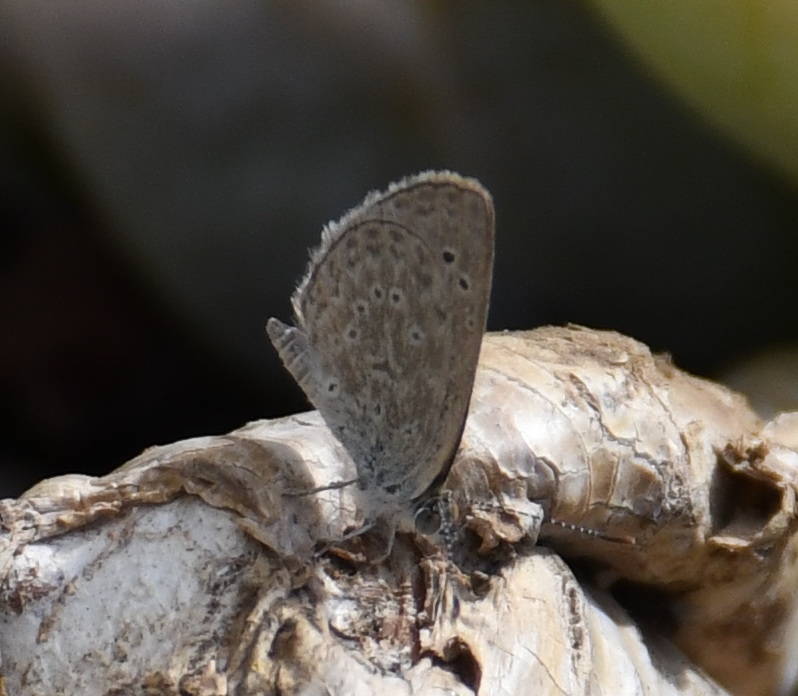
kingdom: Animalia
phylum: Arthropoda
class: Insecta
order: Lepidoptera
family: Lycaenidae
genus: Zizeeria
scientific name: Zizeeria knysna
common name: African grass blue
